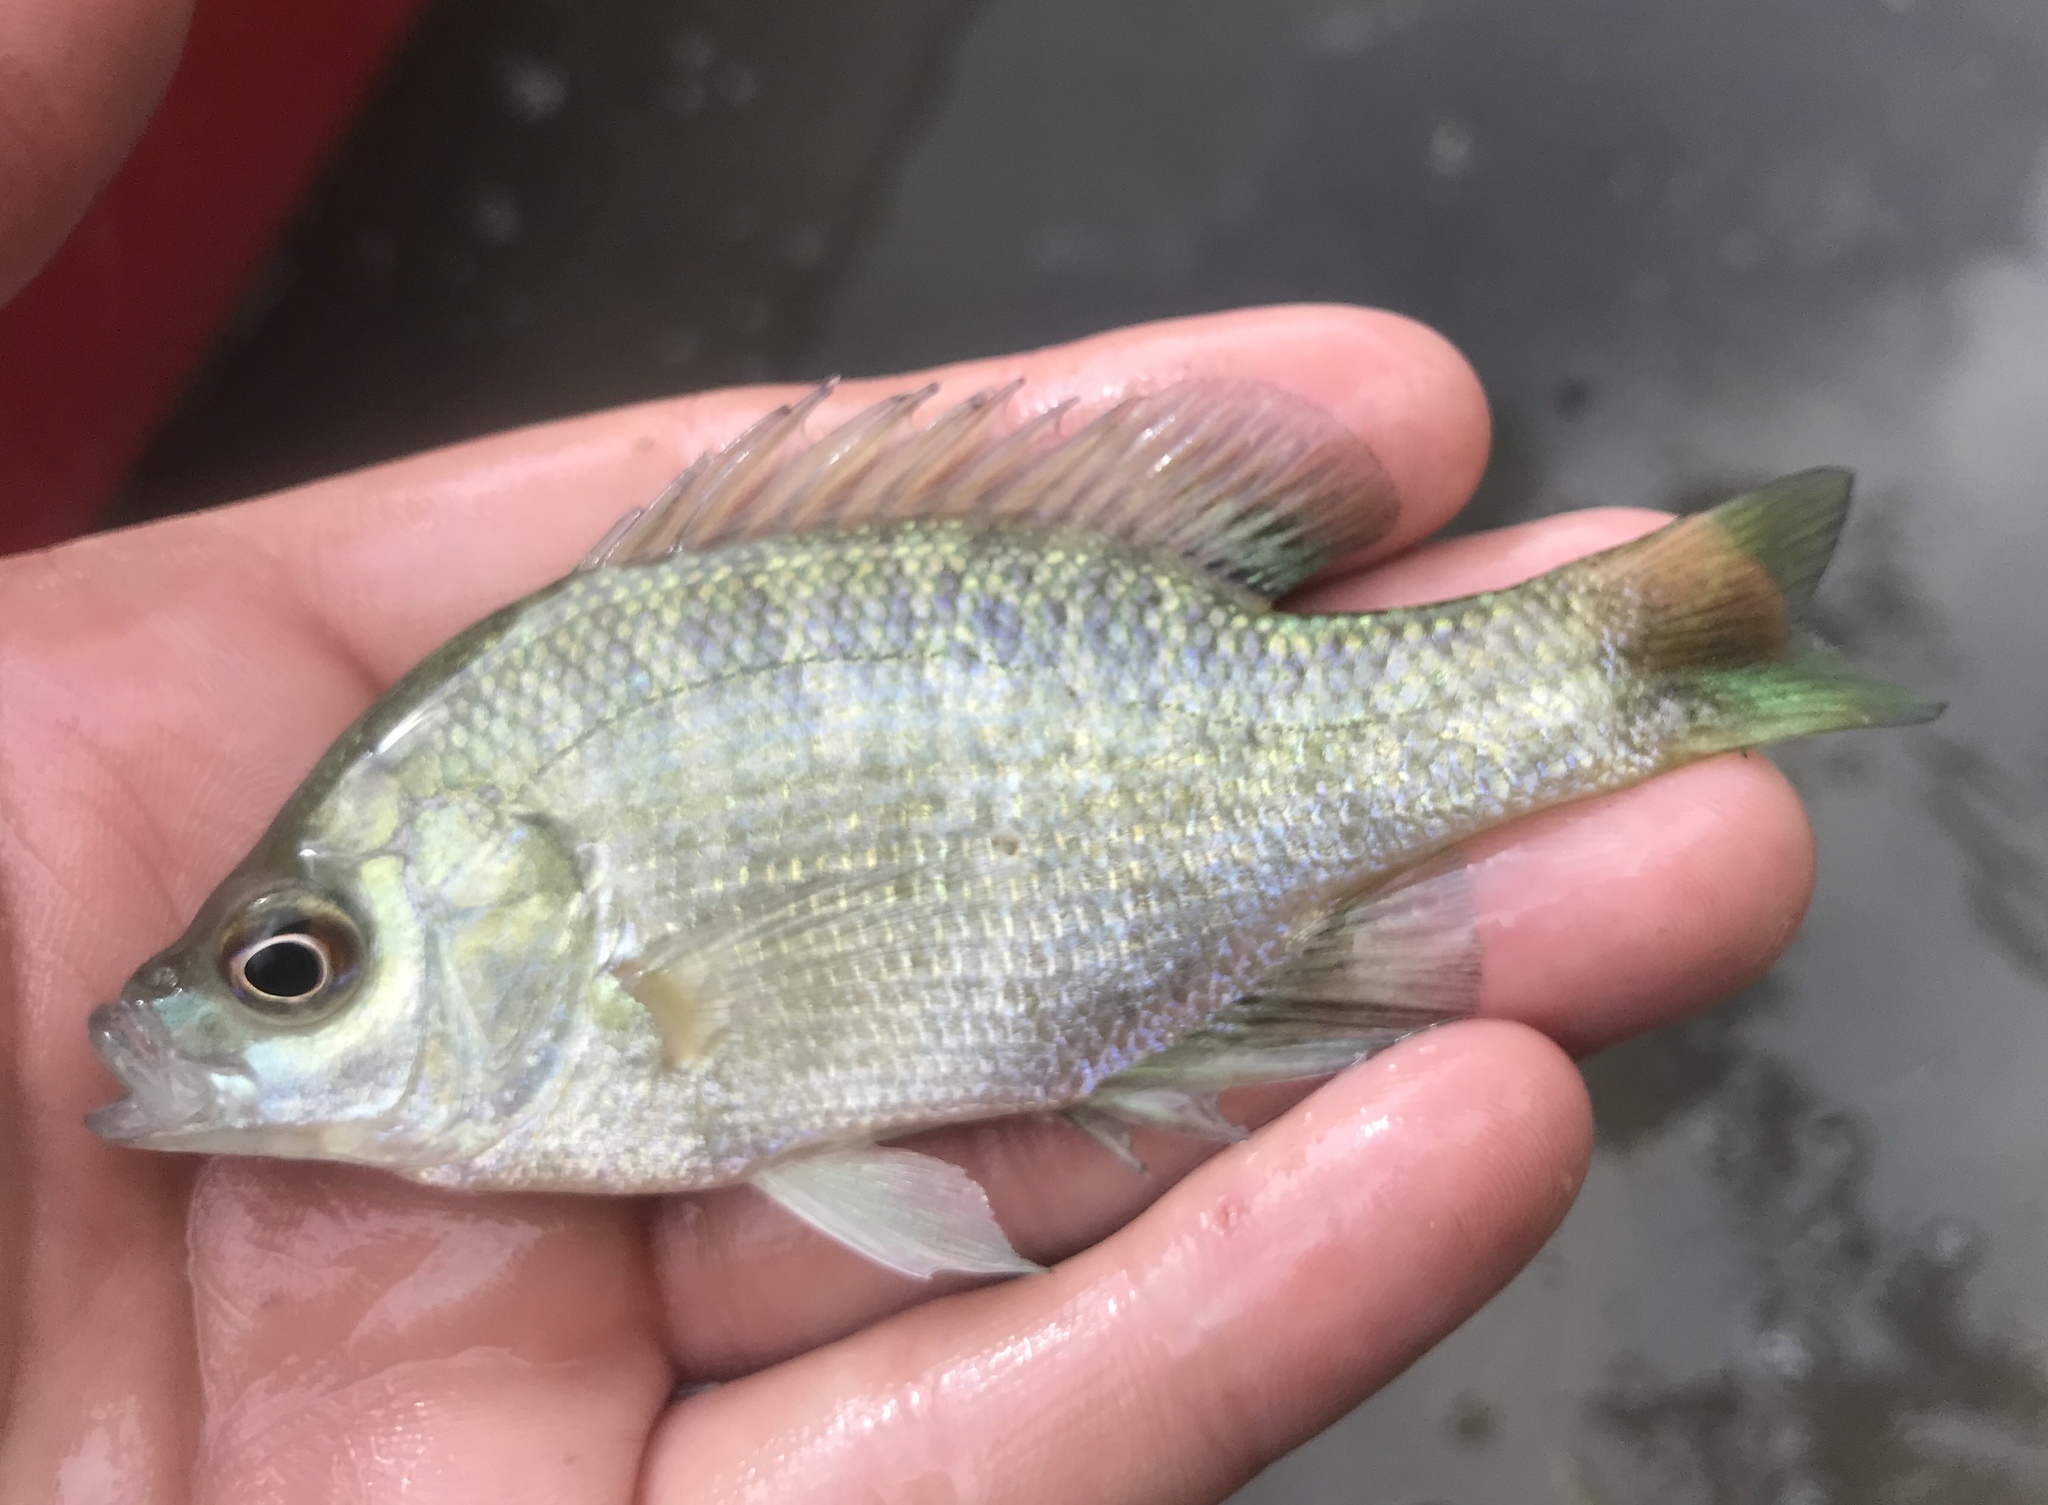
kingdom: Animalia
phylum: Chordata
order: Perciformes
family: Centrarchidae
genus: Lepomis
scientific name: Lepomis macrochirus
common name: Bluegill
